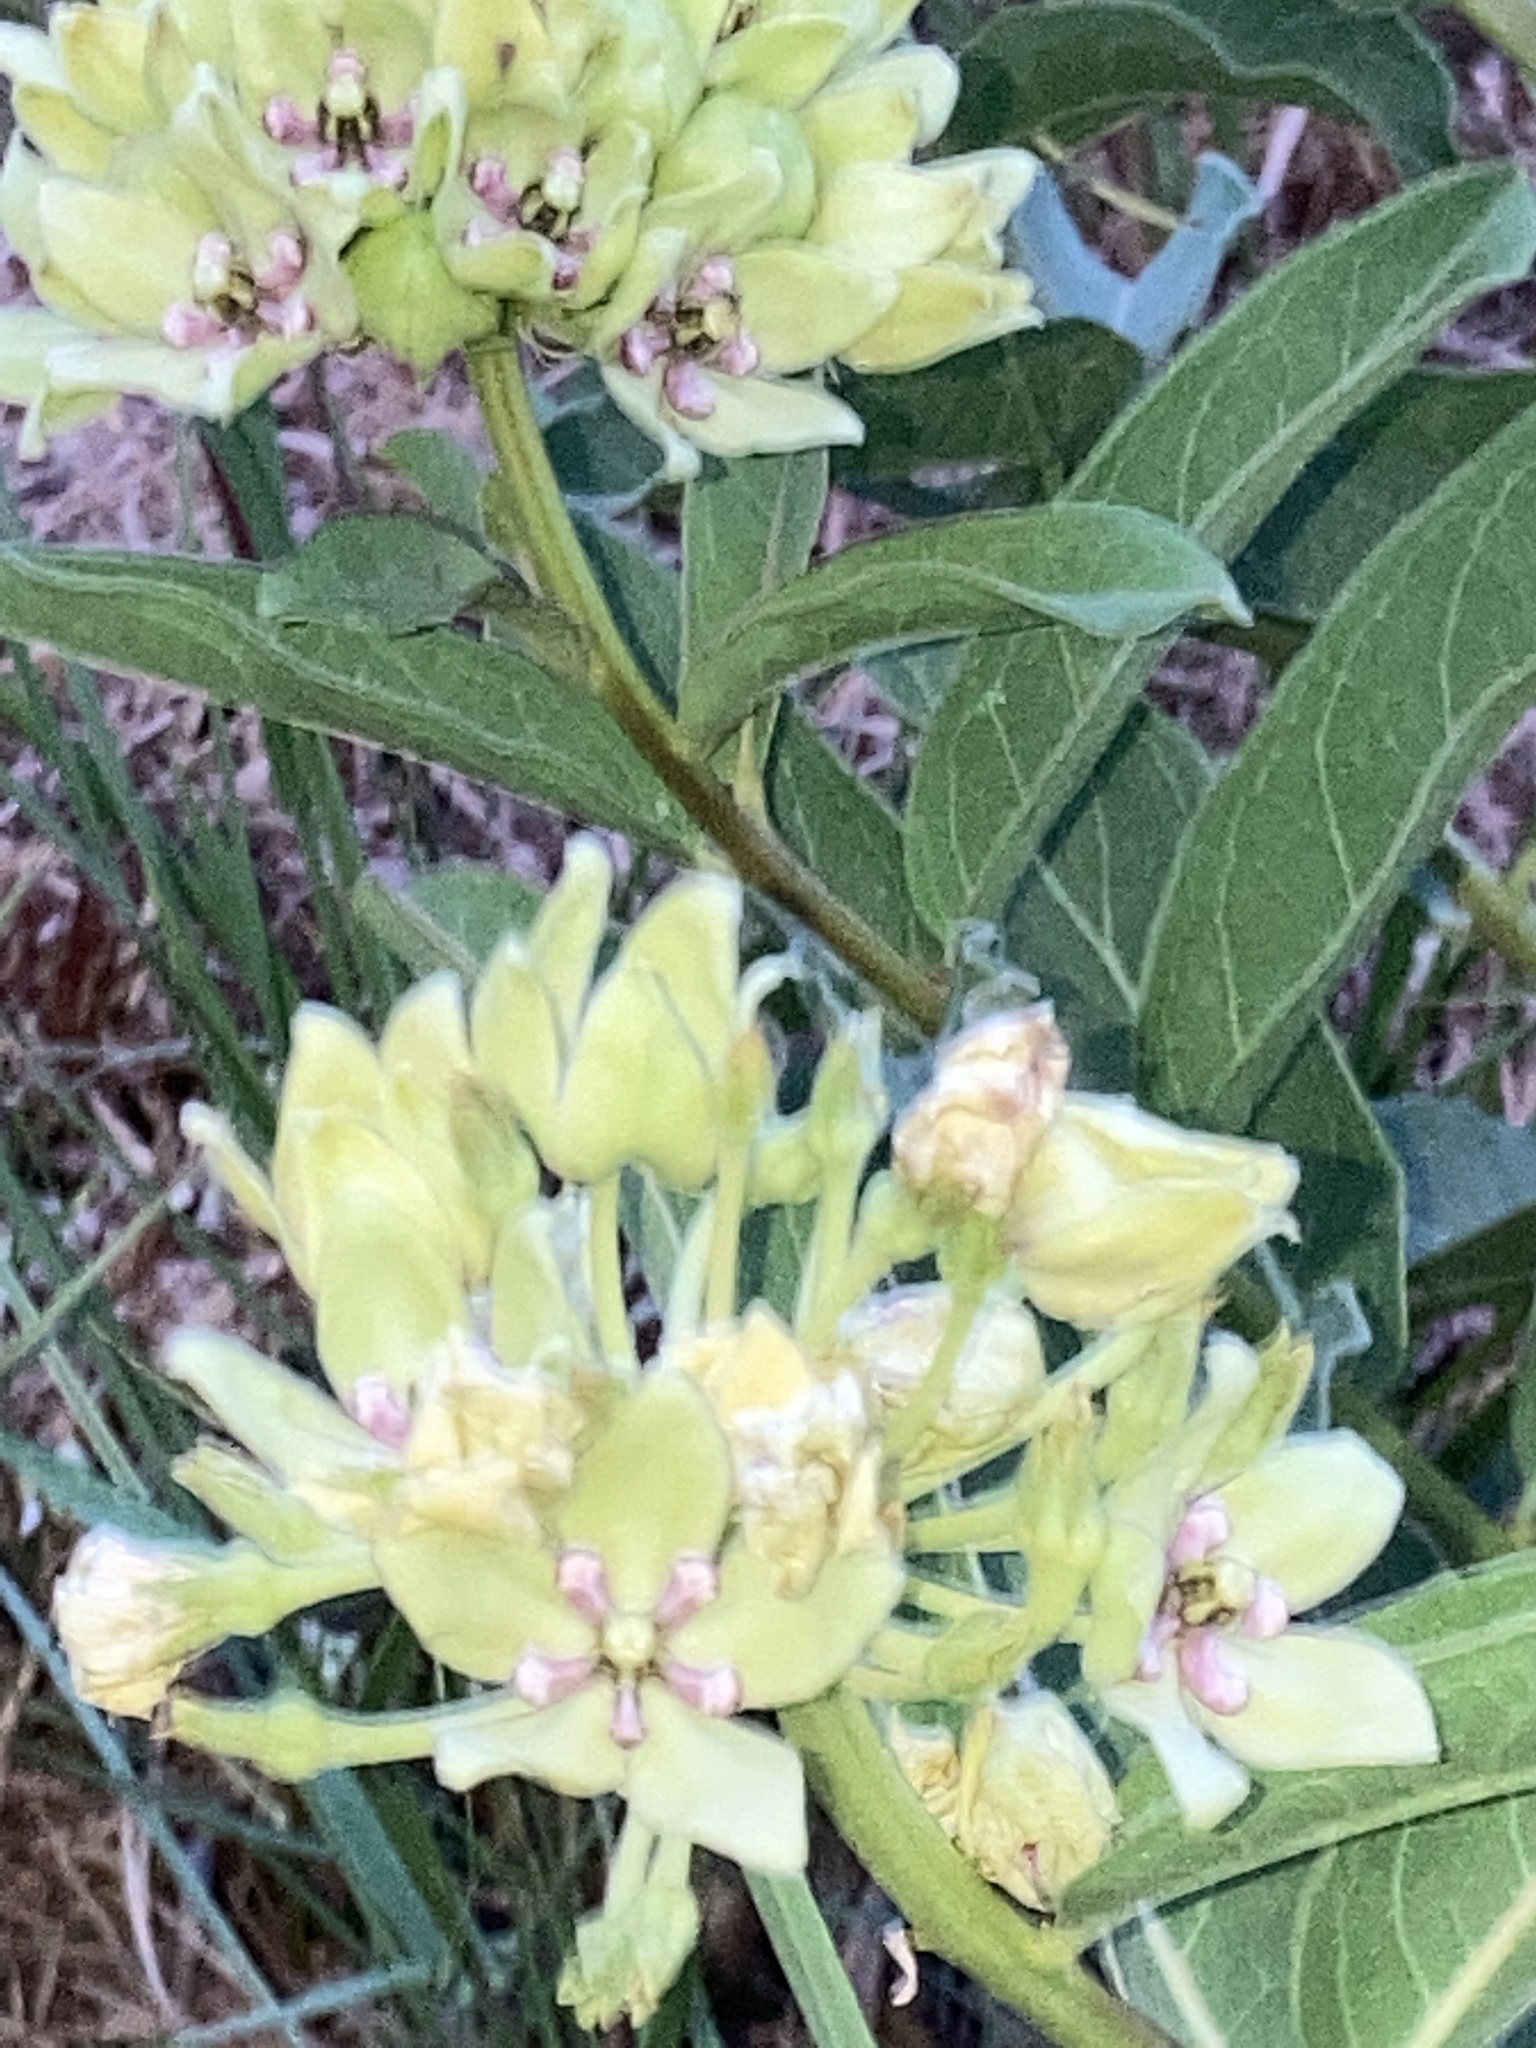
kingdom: Plantae
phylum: Tracheophyta
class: Magnoliopsida
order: Gentianales
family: Apocynaceae
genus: Asclepias
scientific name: Asclepias viridis
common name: Antelope-horns
